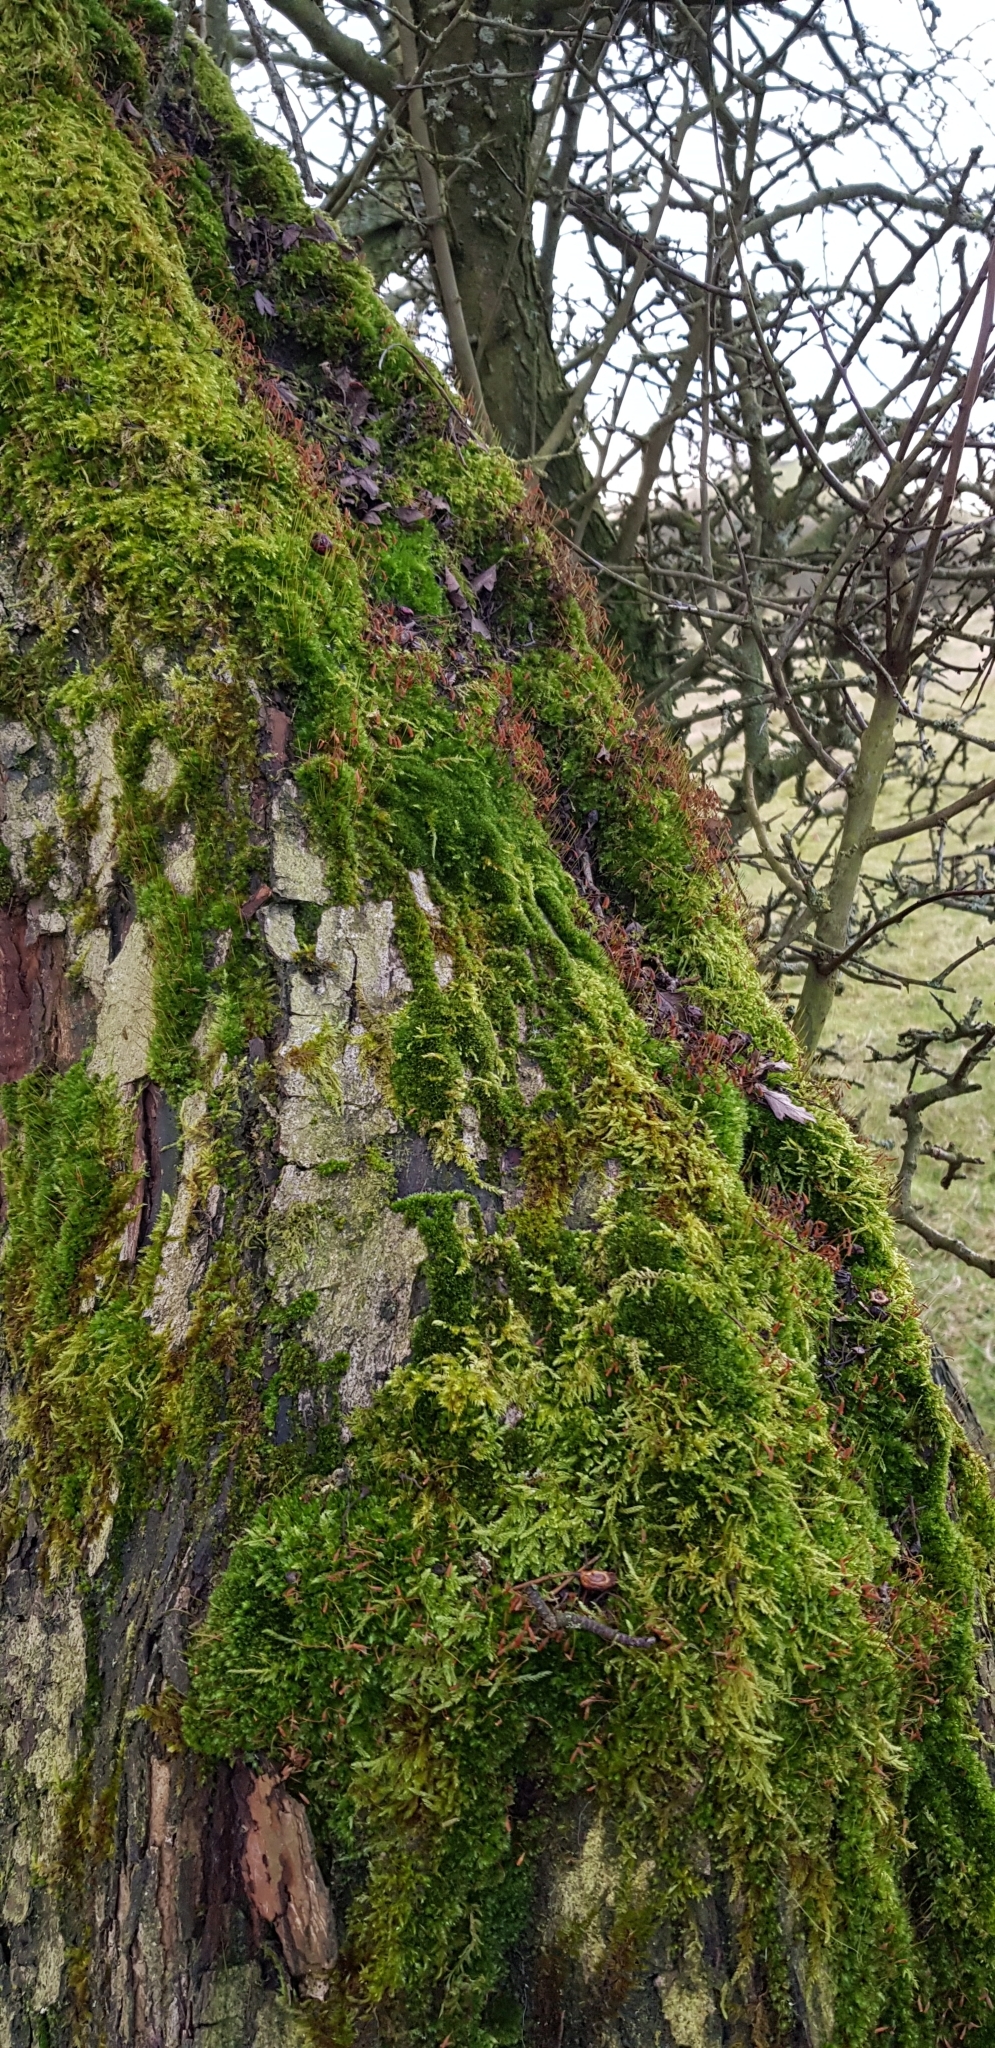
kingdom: Plantae
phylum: Bryophyta
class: Bryopsida
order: Bryales
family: Bryaceae
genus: Rosulabryum
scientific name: Rosulabryum capillare
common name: Capillary thread-moss
